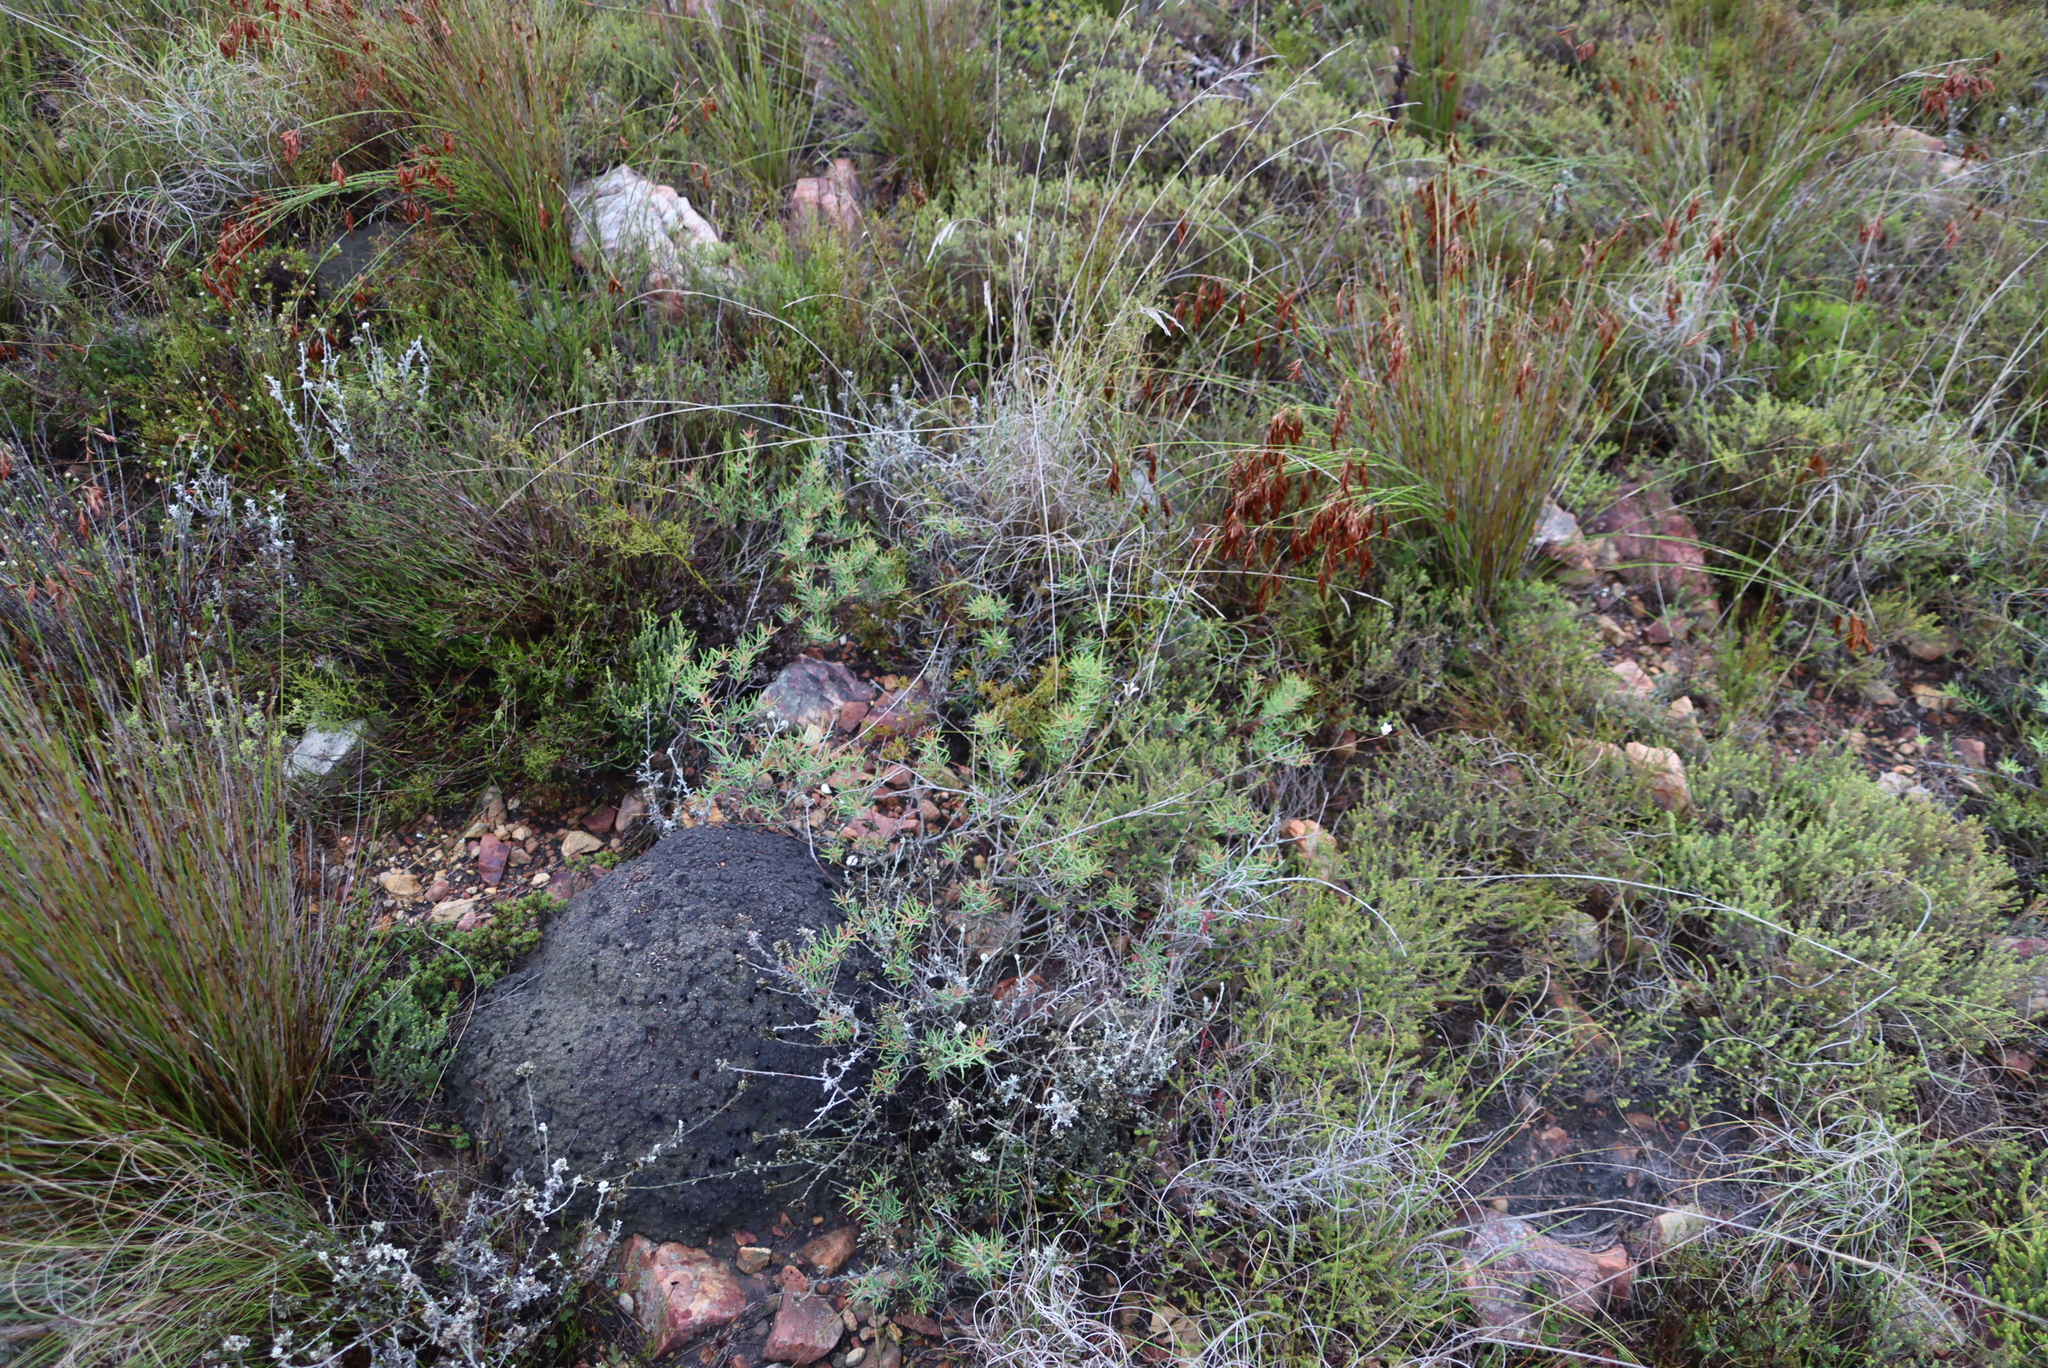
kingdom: Animalia
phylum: Arthropoda
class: Insecta
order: Blattodea
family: Termitidae
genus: Amitermes
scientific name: Amitermes hastatus
